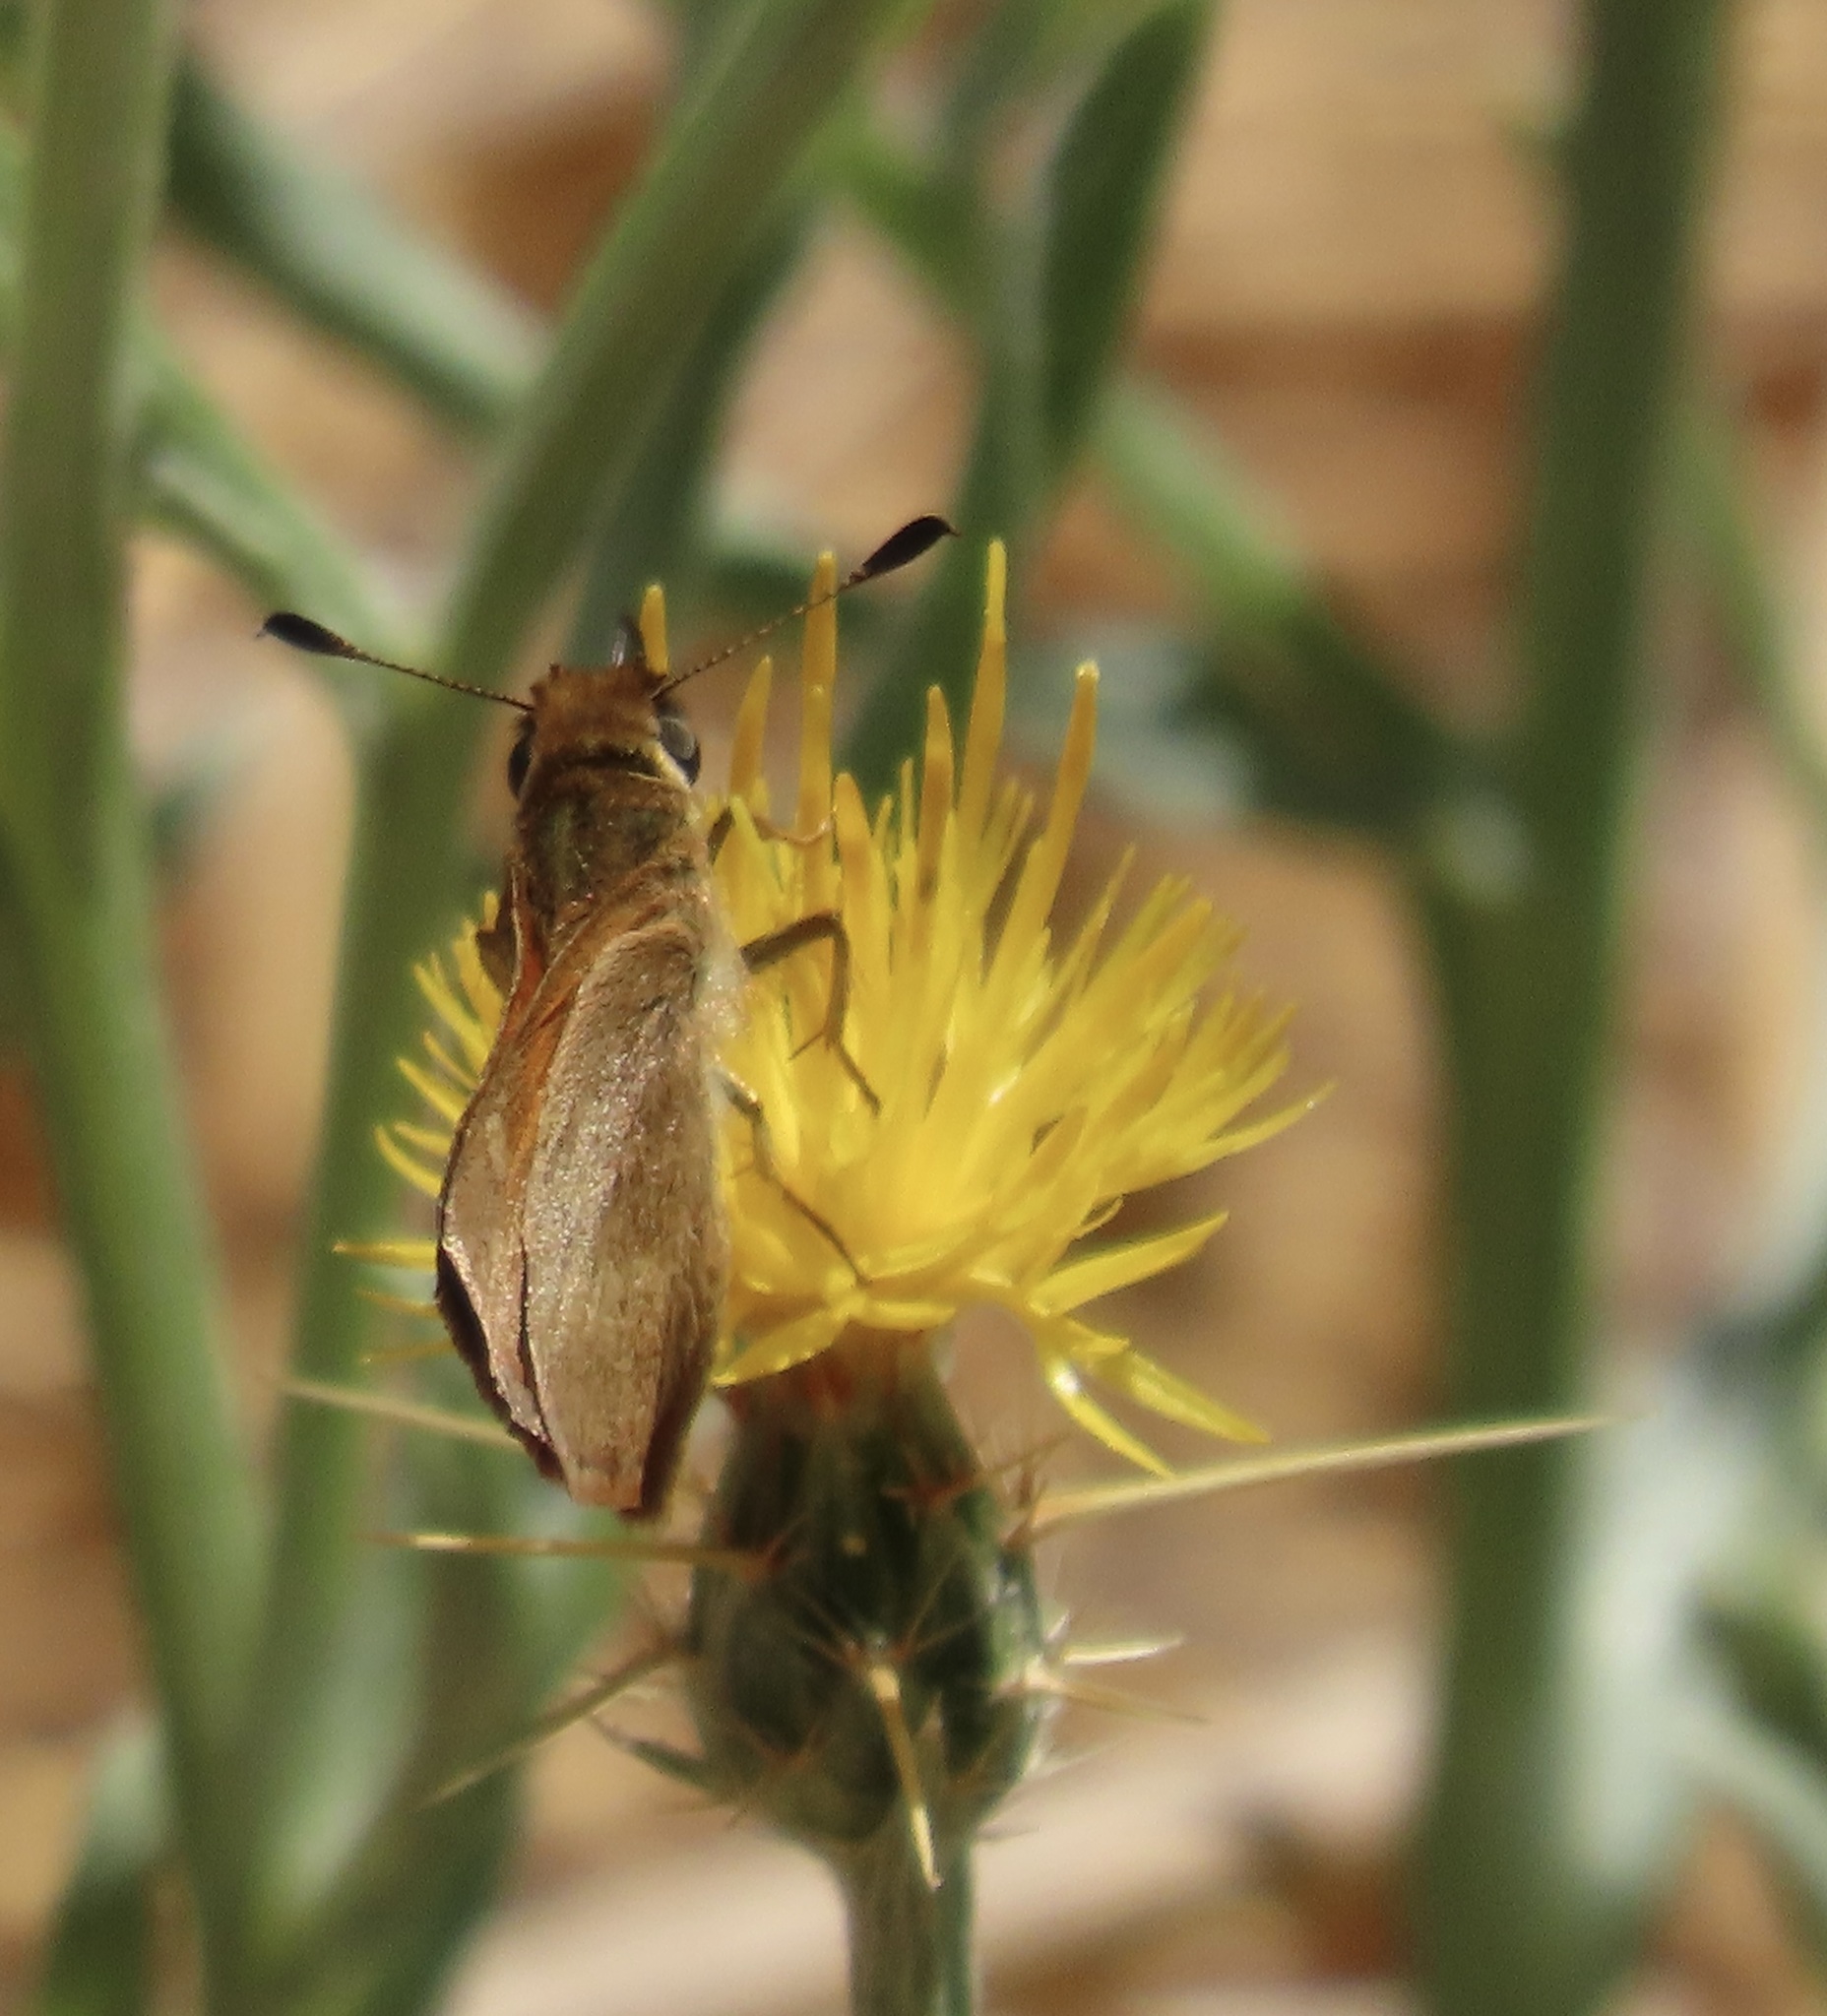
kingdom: Animalia
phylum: Arthropoda
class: Insecta
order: Lepidoptera
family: Hesperiidae
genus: Ochlodes
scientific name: Ochlodes sylvanoides
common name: Woodland skipper
